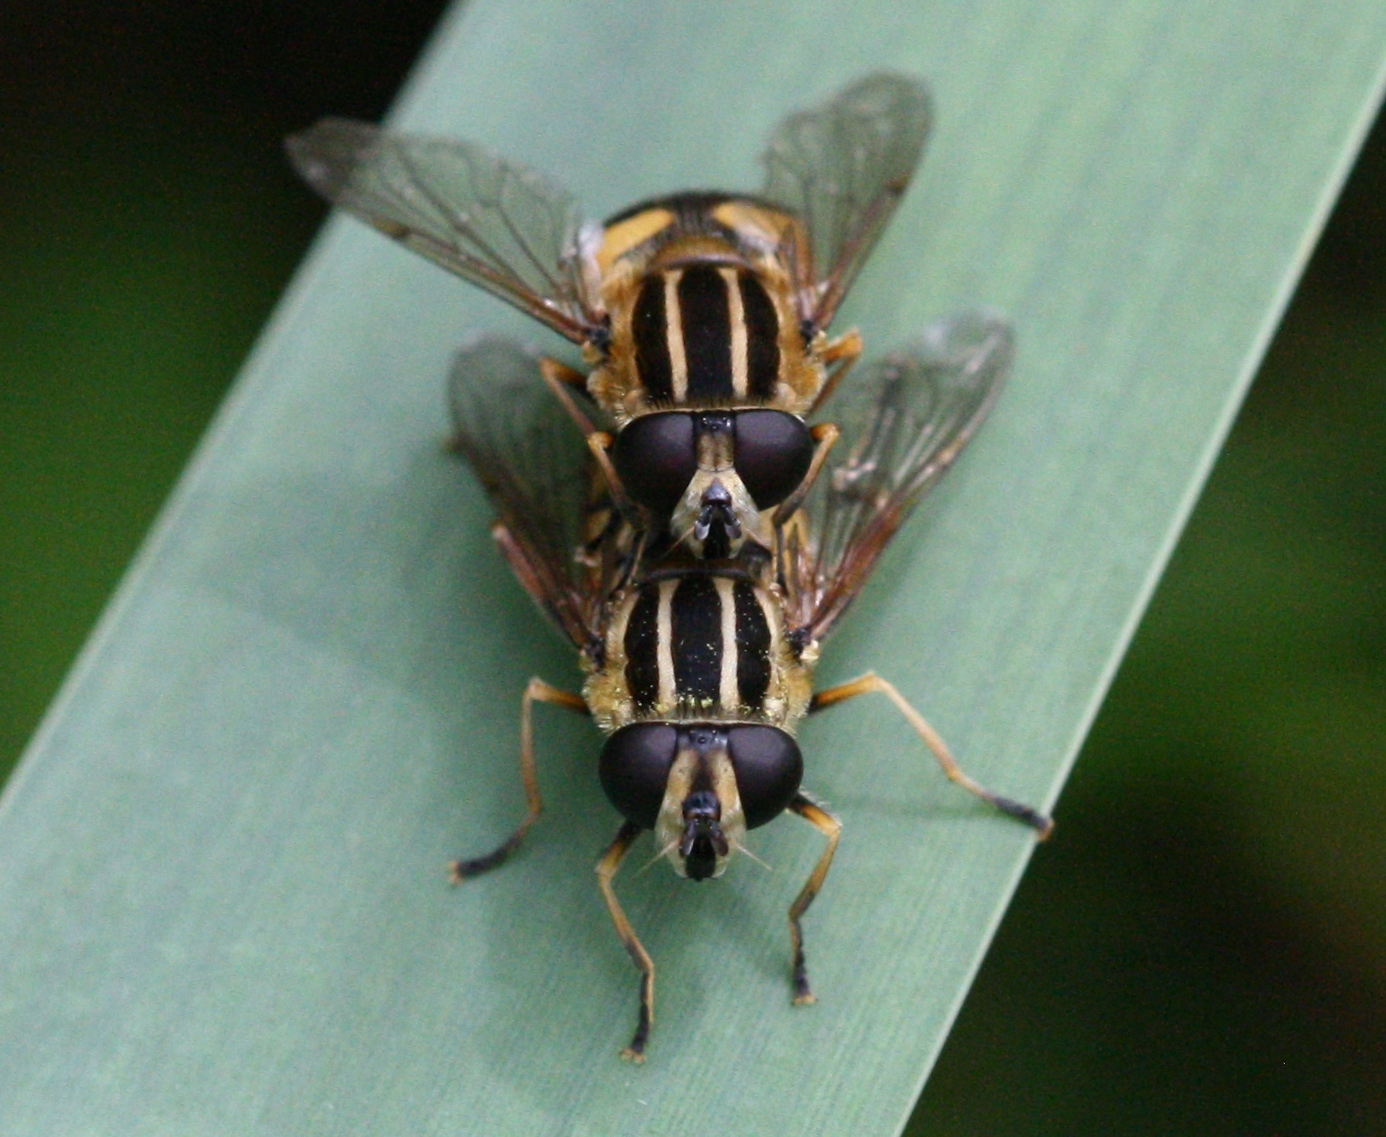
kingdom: Animalia
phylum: Arthropoda
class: Insecta
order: Diptera
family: Syrphidae
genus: Helophilus
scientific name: Helophilus pendulus
